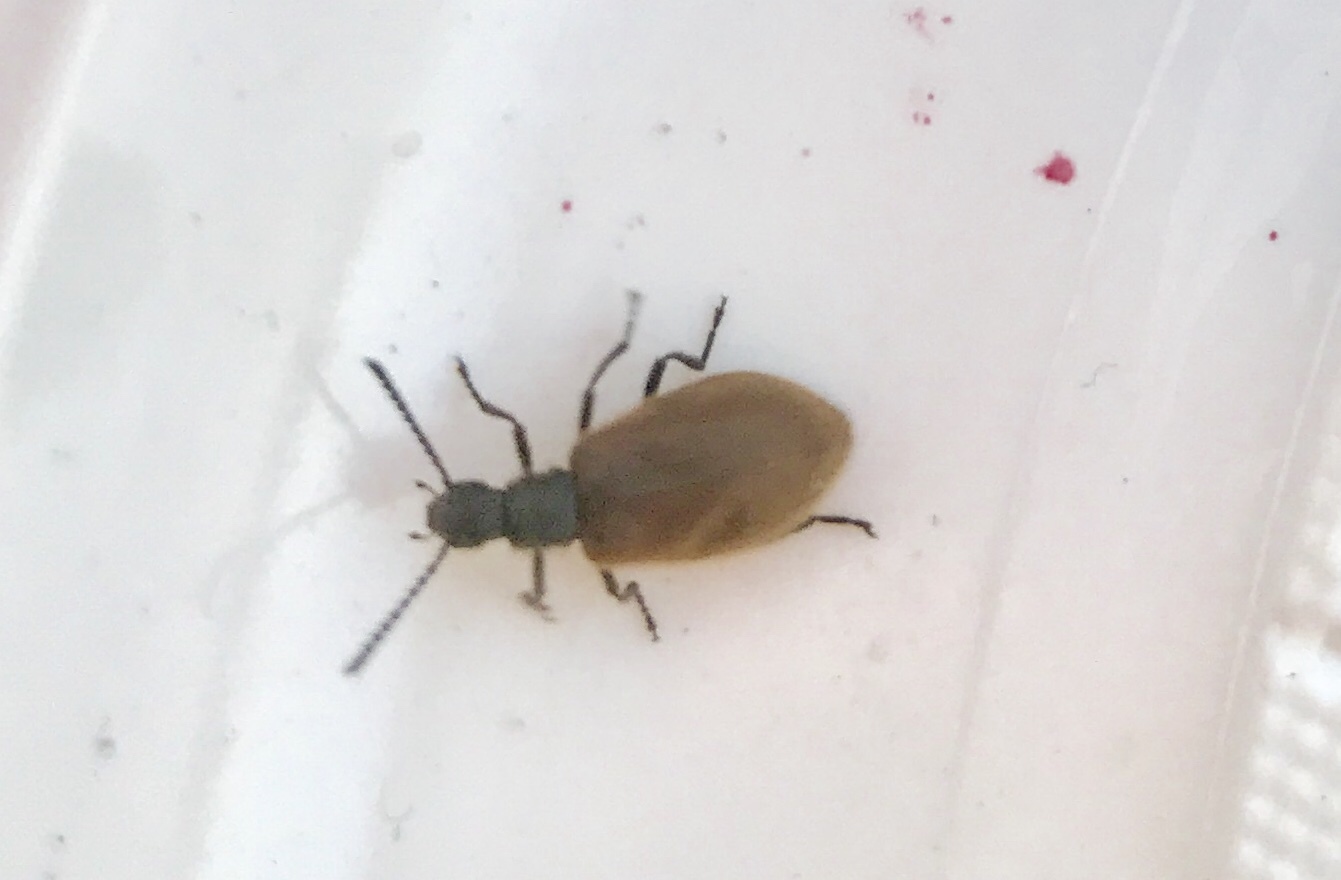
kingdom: Animalia
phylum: Arthropoda
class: Insecta
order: Coleoptera
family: Tenebrionidae
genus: Lagria
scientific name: Lagria hirta
